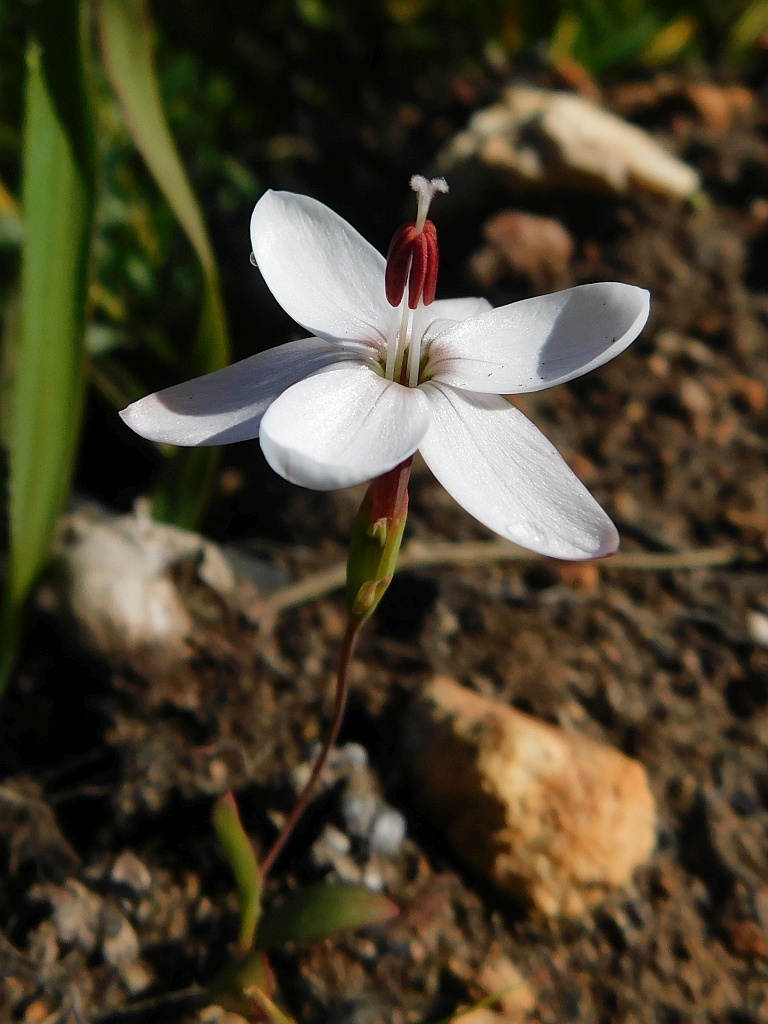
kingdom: Plantae
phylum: Tracheophyta
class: Liliopsida
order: Asparagales
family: Iridaceae
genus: Geissorhiza
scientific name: Geissorhiza ovata
